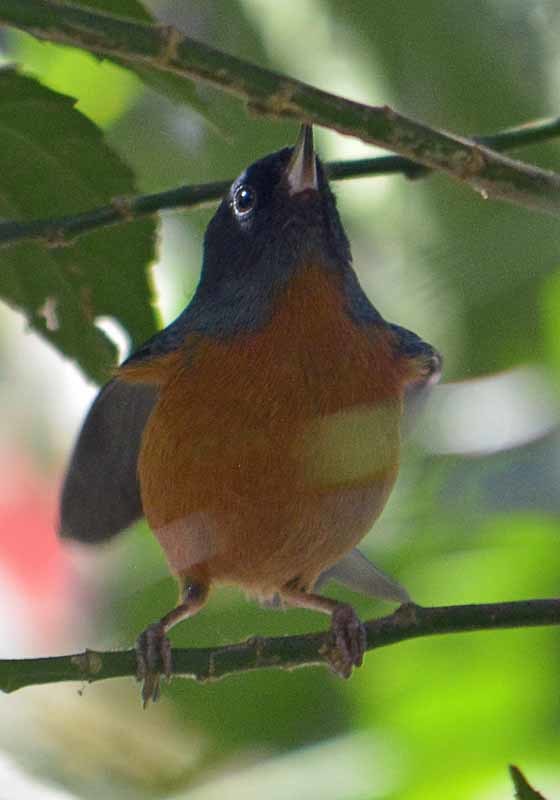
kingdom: Animalia
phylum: Chordata
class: Aves
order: Passeriformes
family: Thraupidae
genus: Diglossa
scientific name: Diglossa baritula
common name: Cinnamon-bellied flowerpiercer
